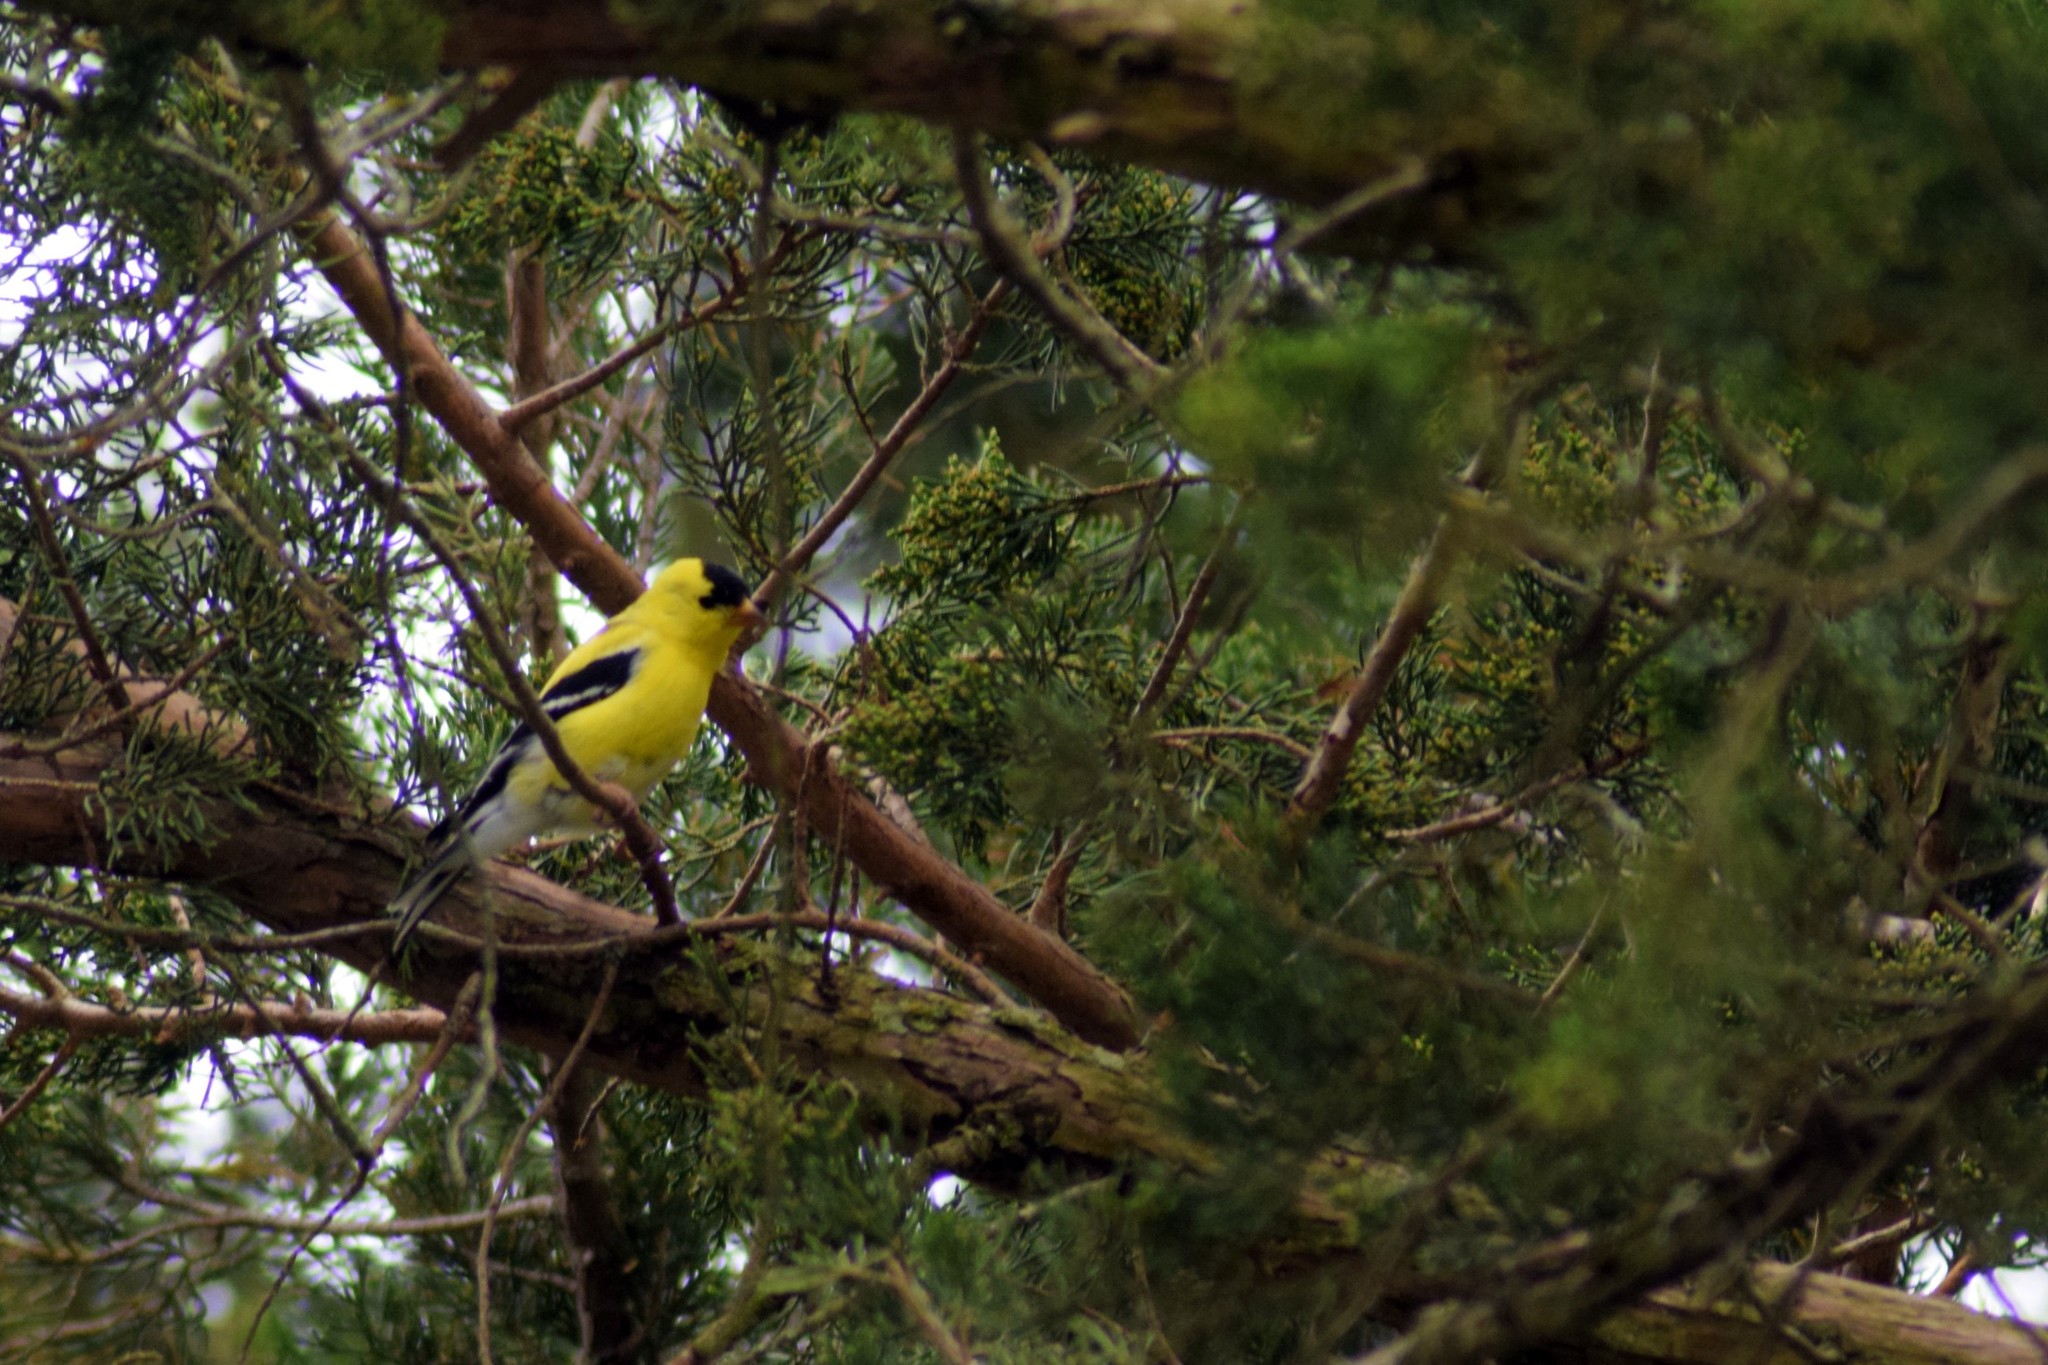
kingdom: Animalia
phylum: Chordata
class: Aves
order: Passeriformes
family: Fringillidae
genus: Spinus
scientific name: Spinus tristis
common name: American goldfinch
